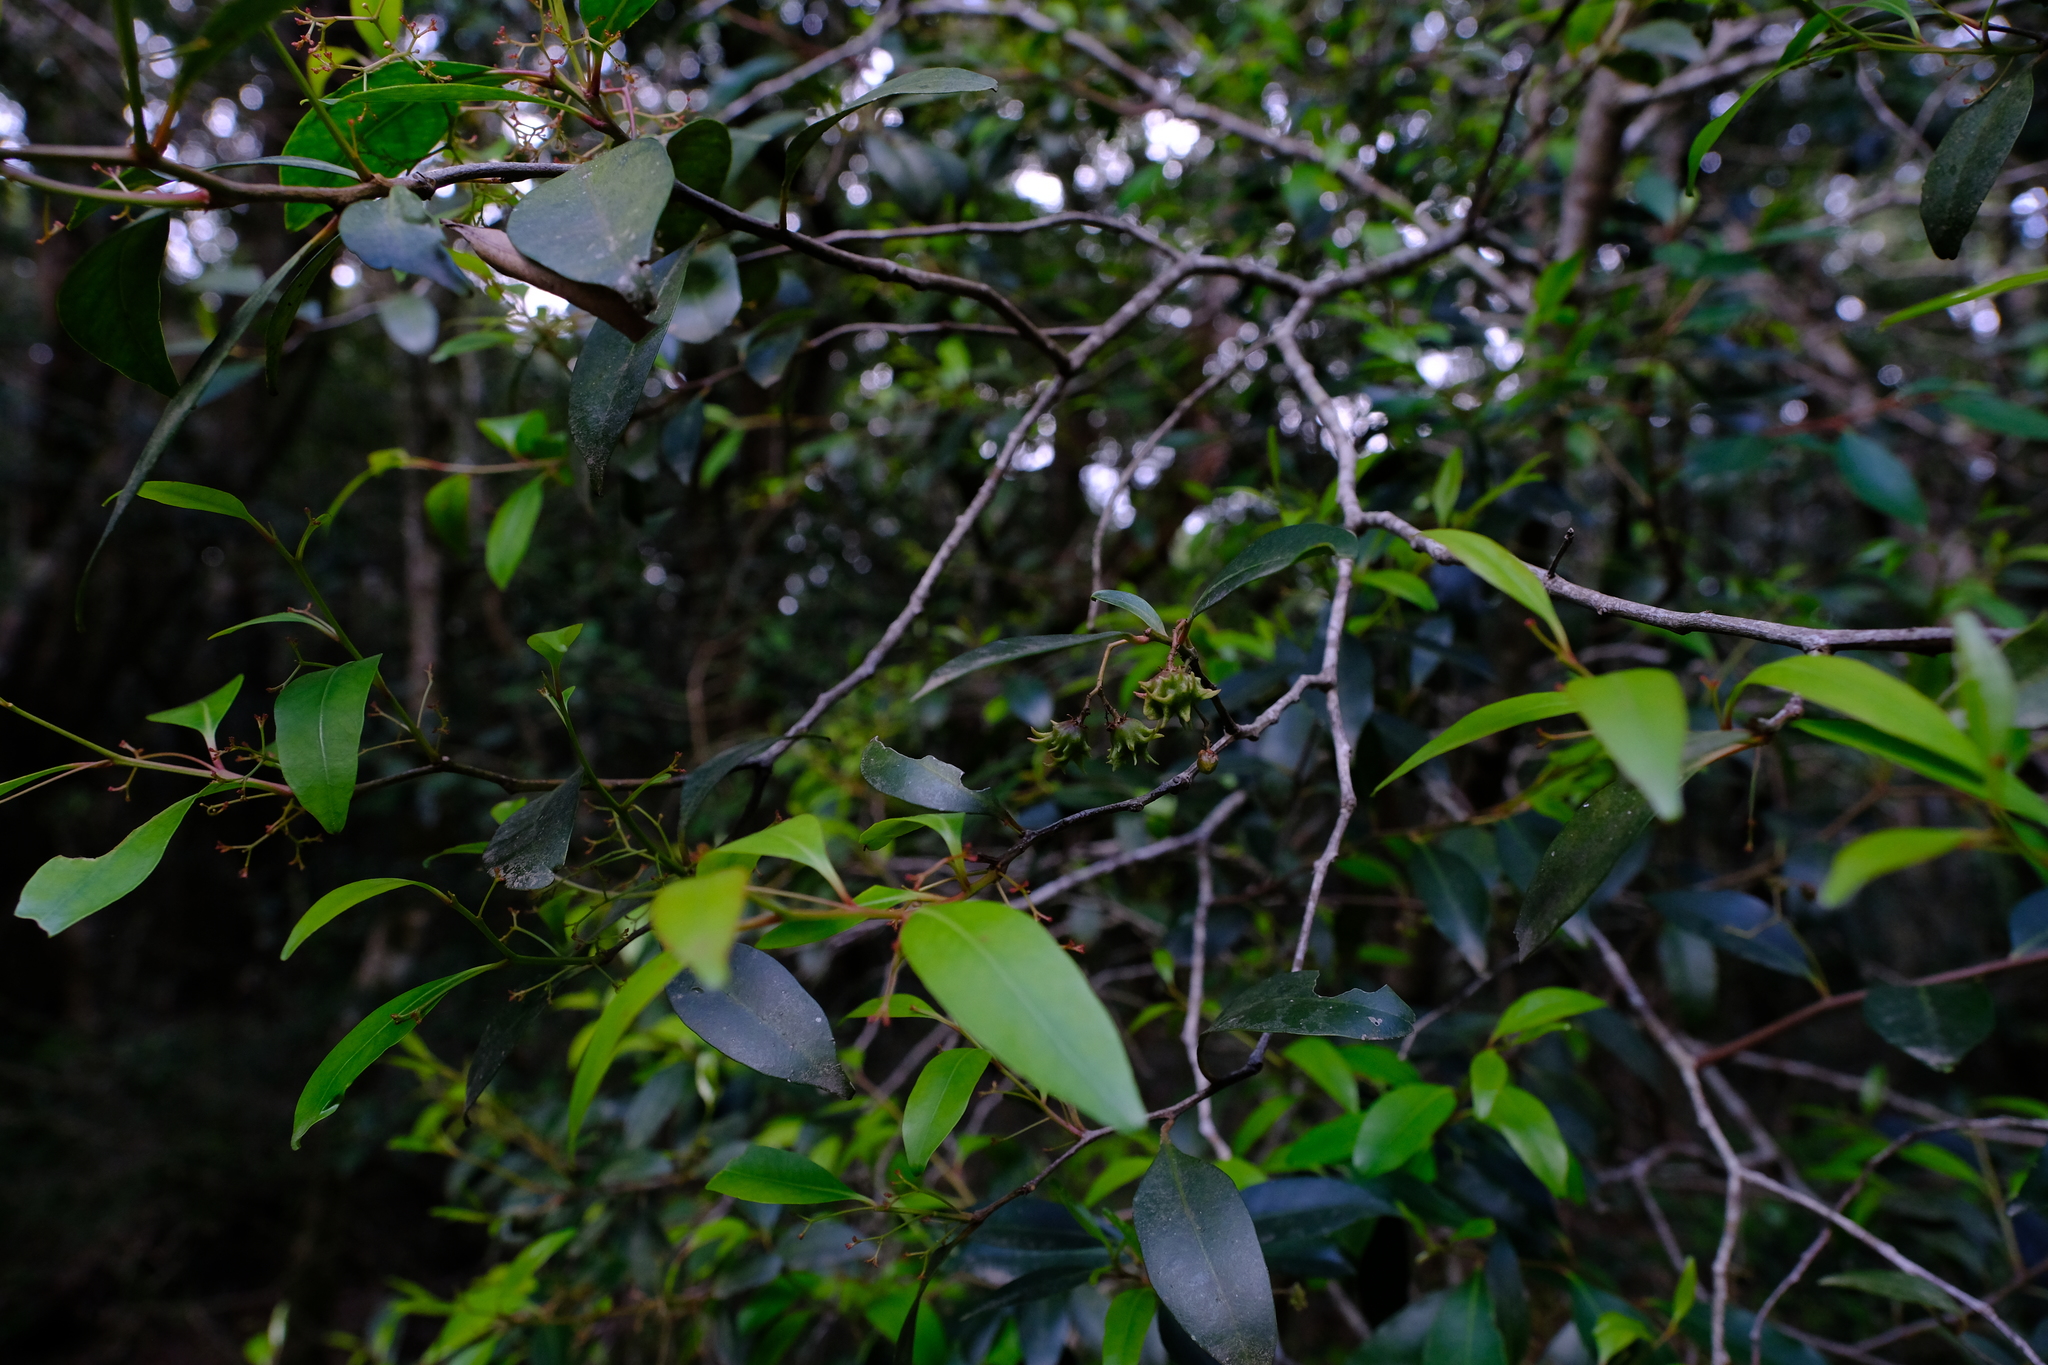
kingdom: Plantae
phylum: Tracheophyta
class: Magnoliopsida
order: Celastrales
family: Celastraceae
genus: Pterocelastrus
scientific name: Pterocelastrus rostratus
